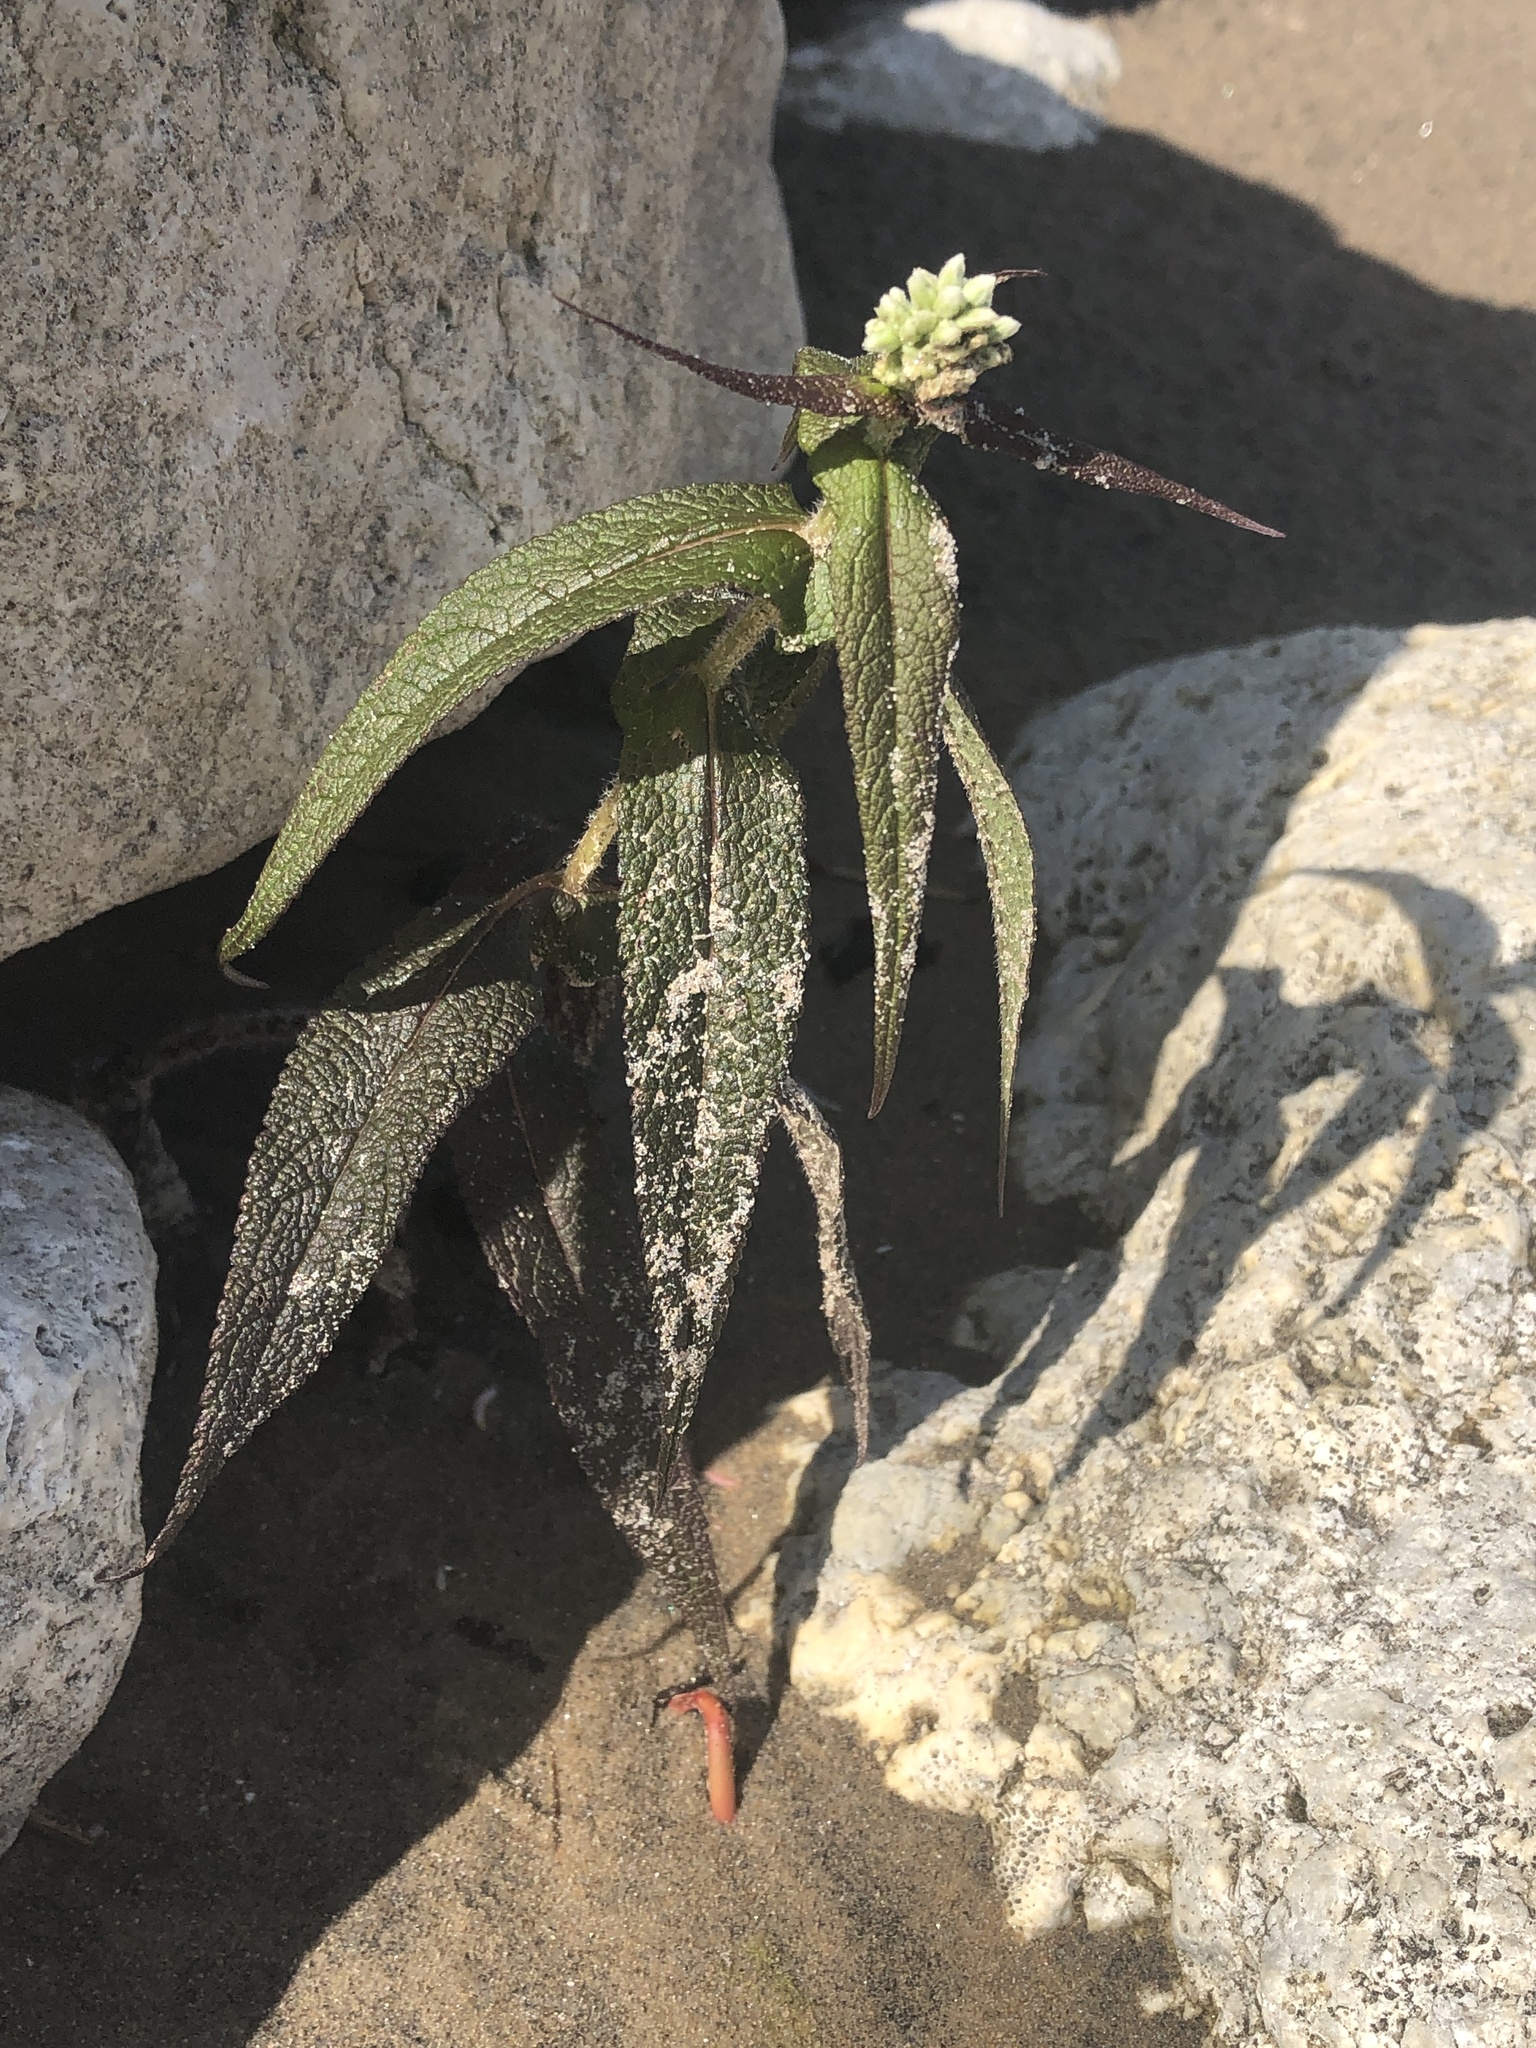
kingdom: Plantae
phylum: Tracheophyta
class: Magnoliopsida
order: Asterales
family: Asteraceae
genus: Eupatorium
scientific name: Eupatorium perfoliatum
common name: Boneset
